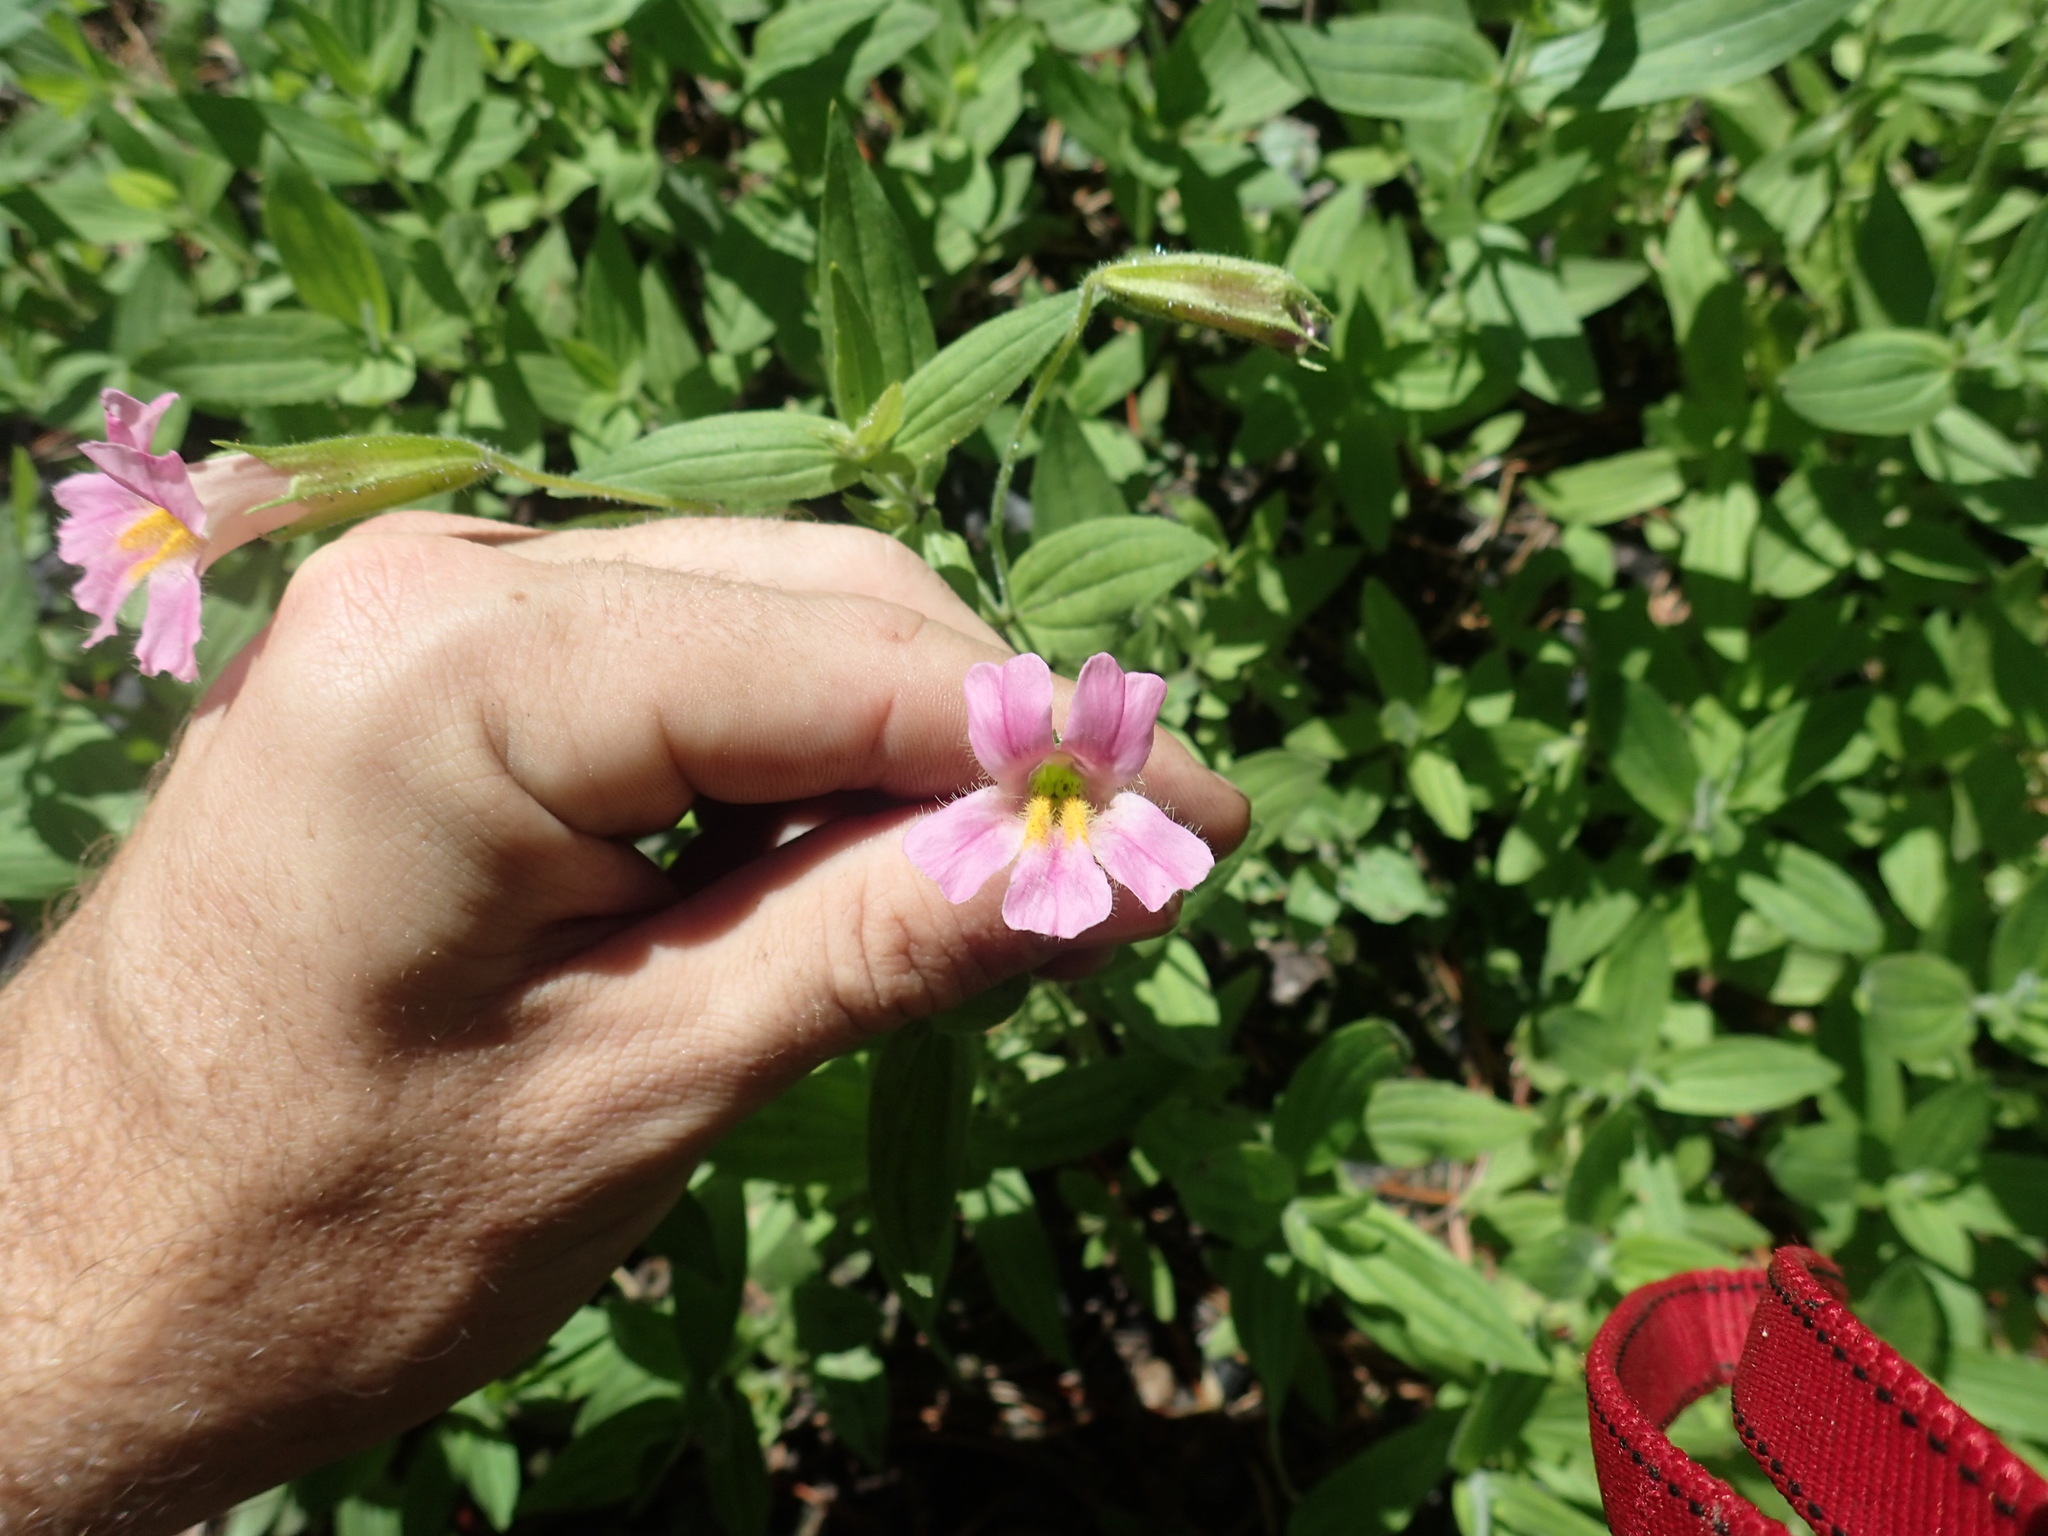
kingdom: Plantae
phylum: Tracheophyta
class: Magnoliopsida
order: Lamiales
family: Phrymaceae
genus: Erythranthe
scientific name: Erythranthe erubescens
